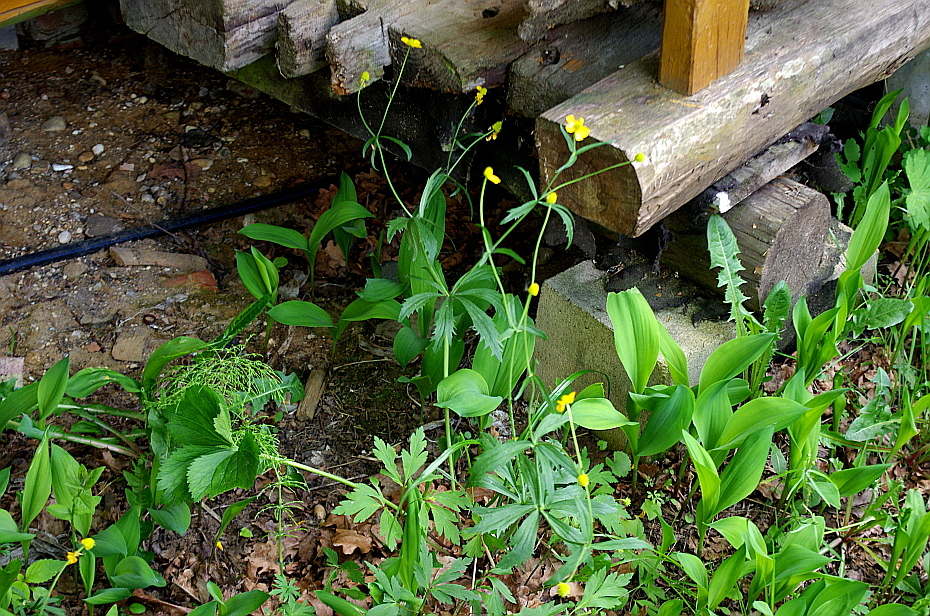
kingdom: Plantae
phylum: Tracheophyta
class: Magnoliopsida
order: Ranunculales
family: Ranunculaceae
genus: Ranunculus
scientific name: Ranunculus cassubicus
